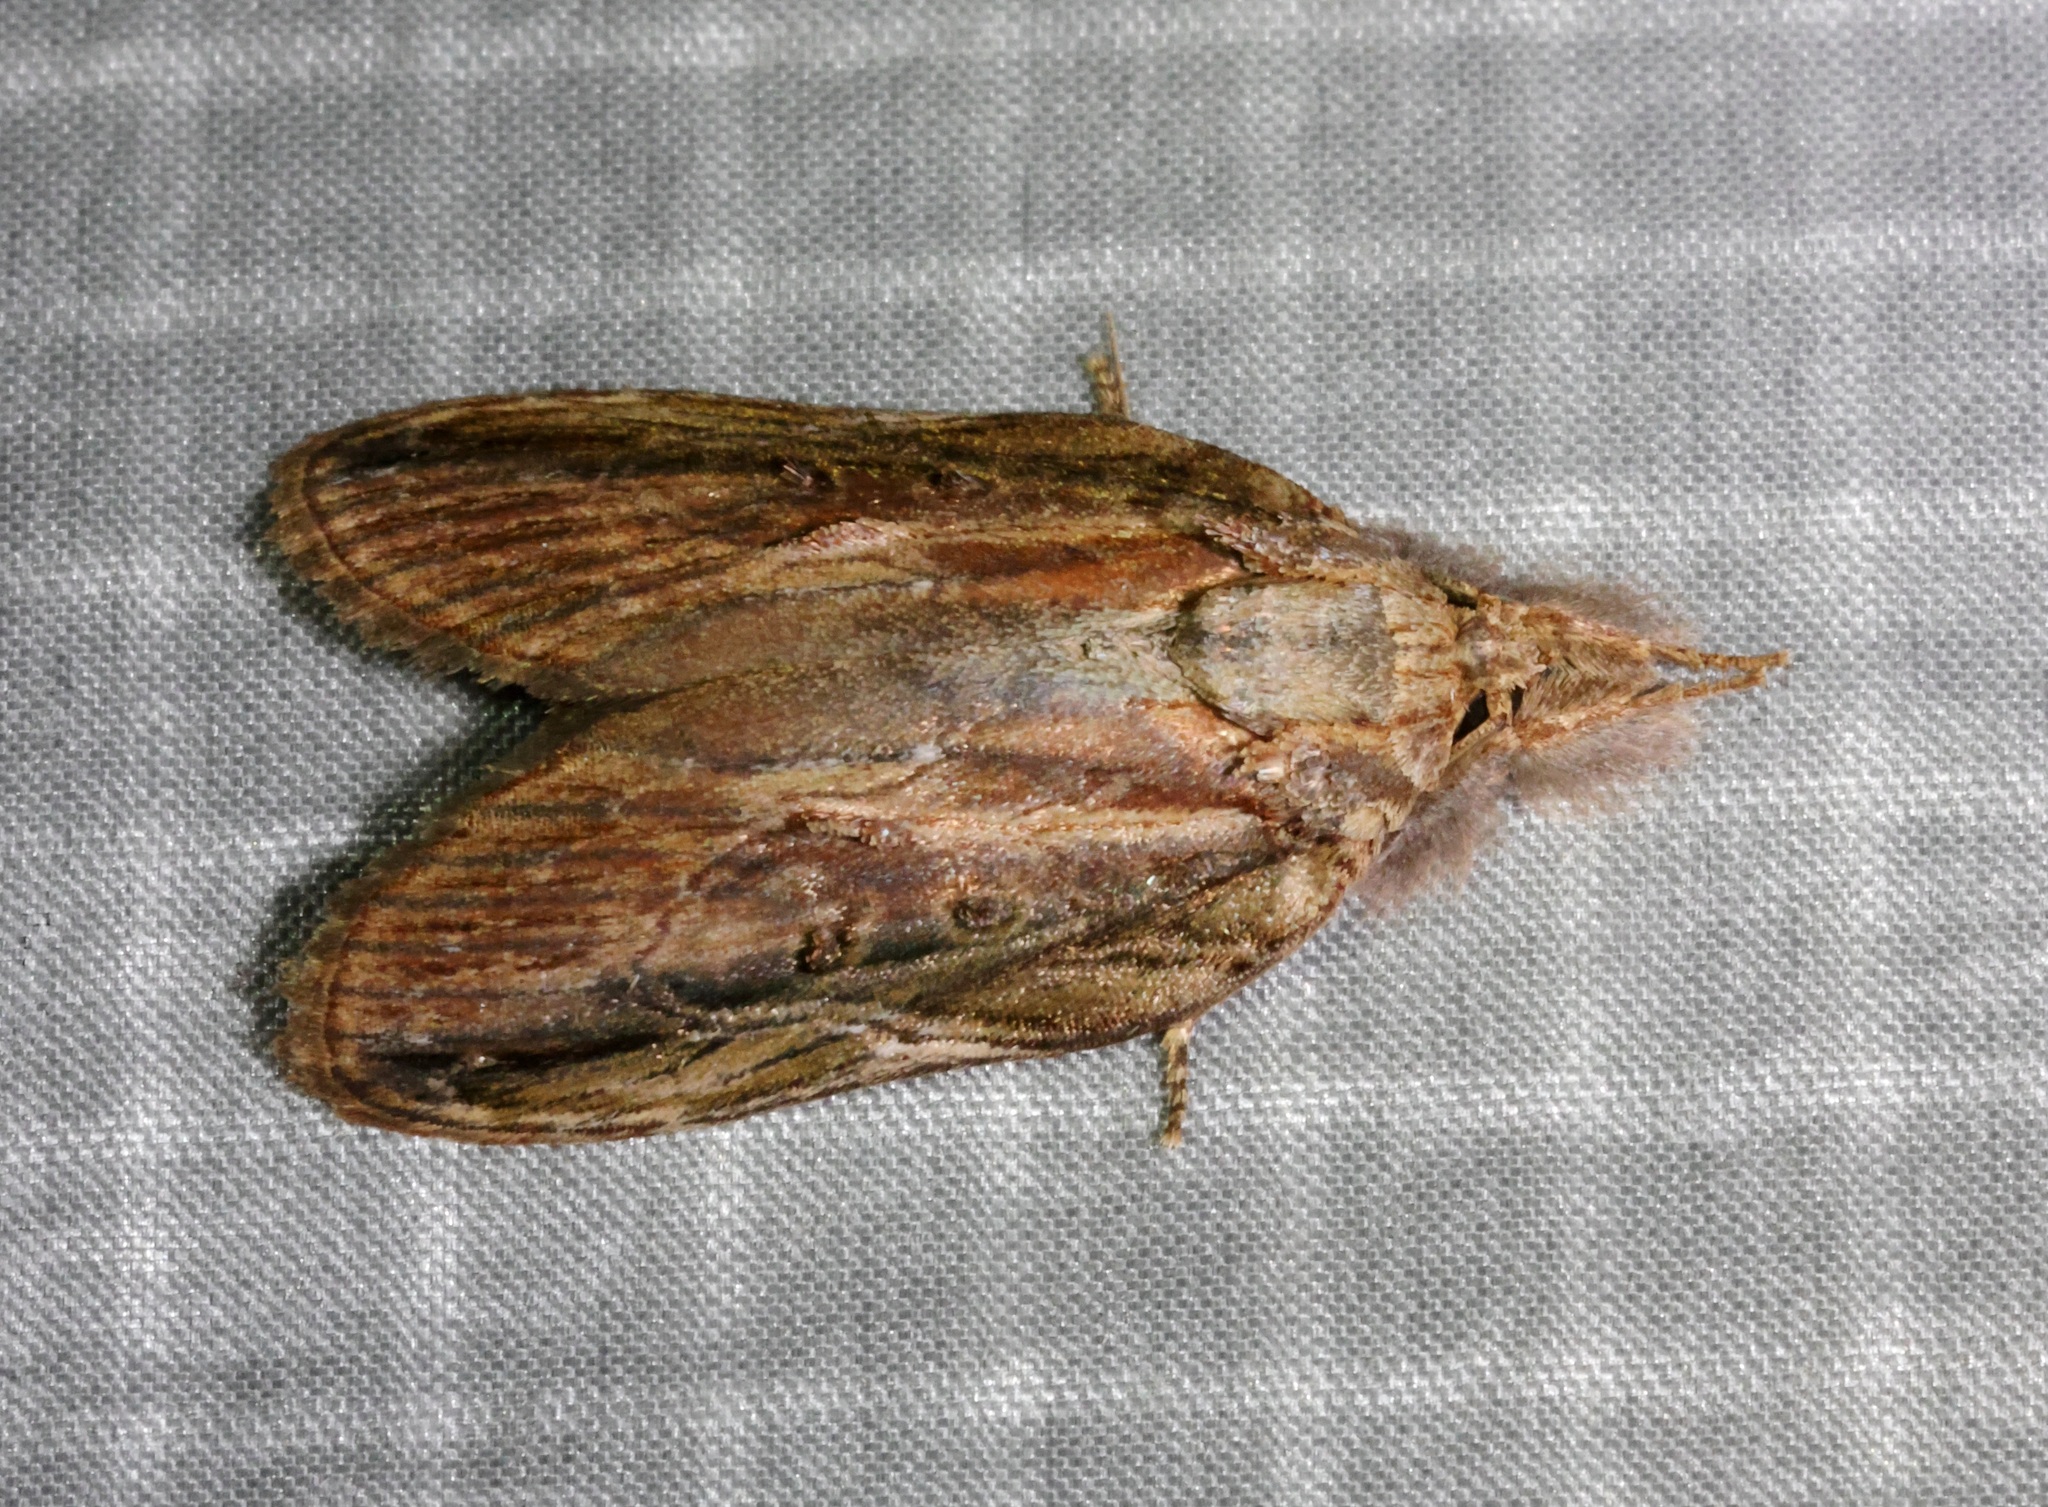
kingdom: Animalia
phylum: Arthropoda
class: Insecta
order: Lepidoptera
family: Nolidae
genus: Lamprothripa
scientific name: Lamprothripa scotia
